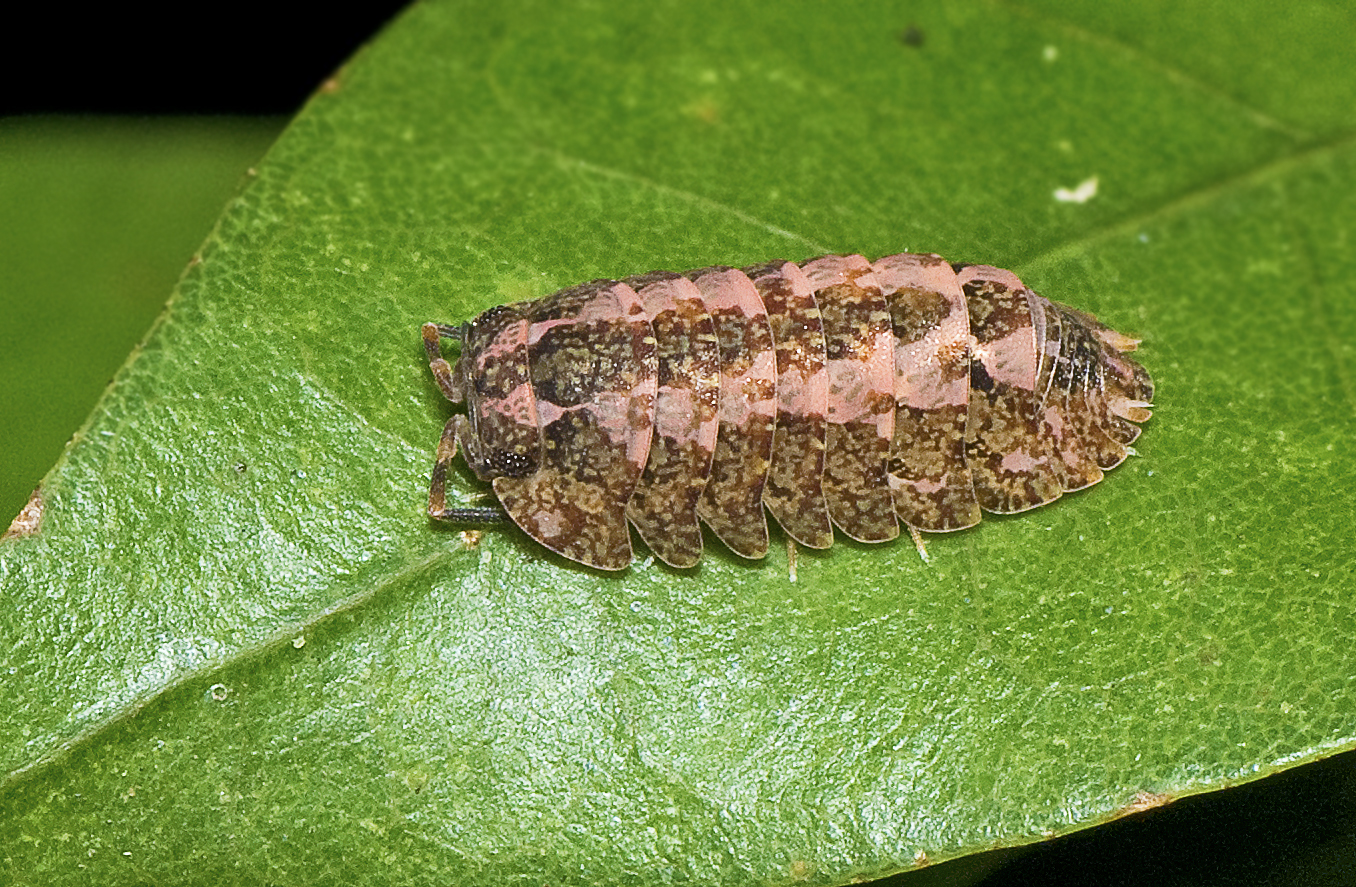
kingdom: Animalia
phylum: Arthropoda
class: Malacostraca
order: Isopoda
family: Armadillidae
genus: Cubaris
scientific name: Cubaris marmorata
